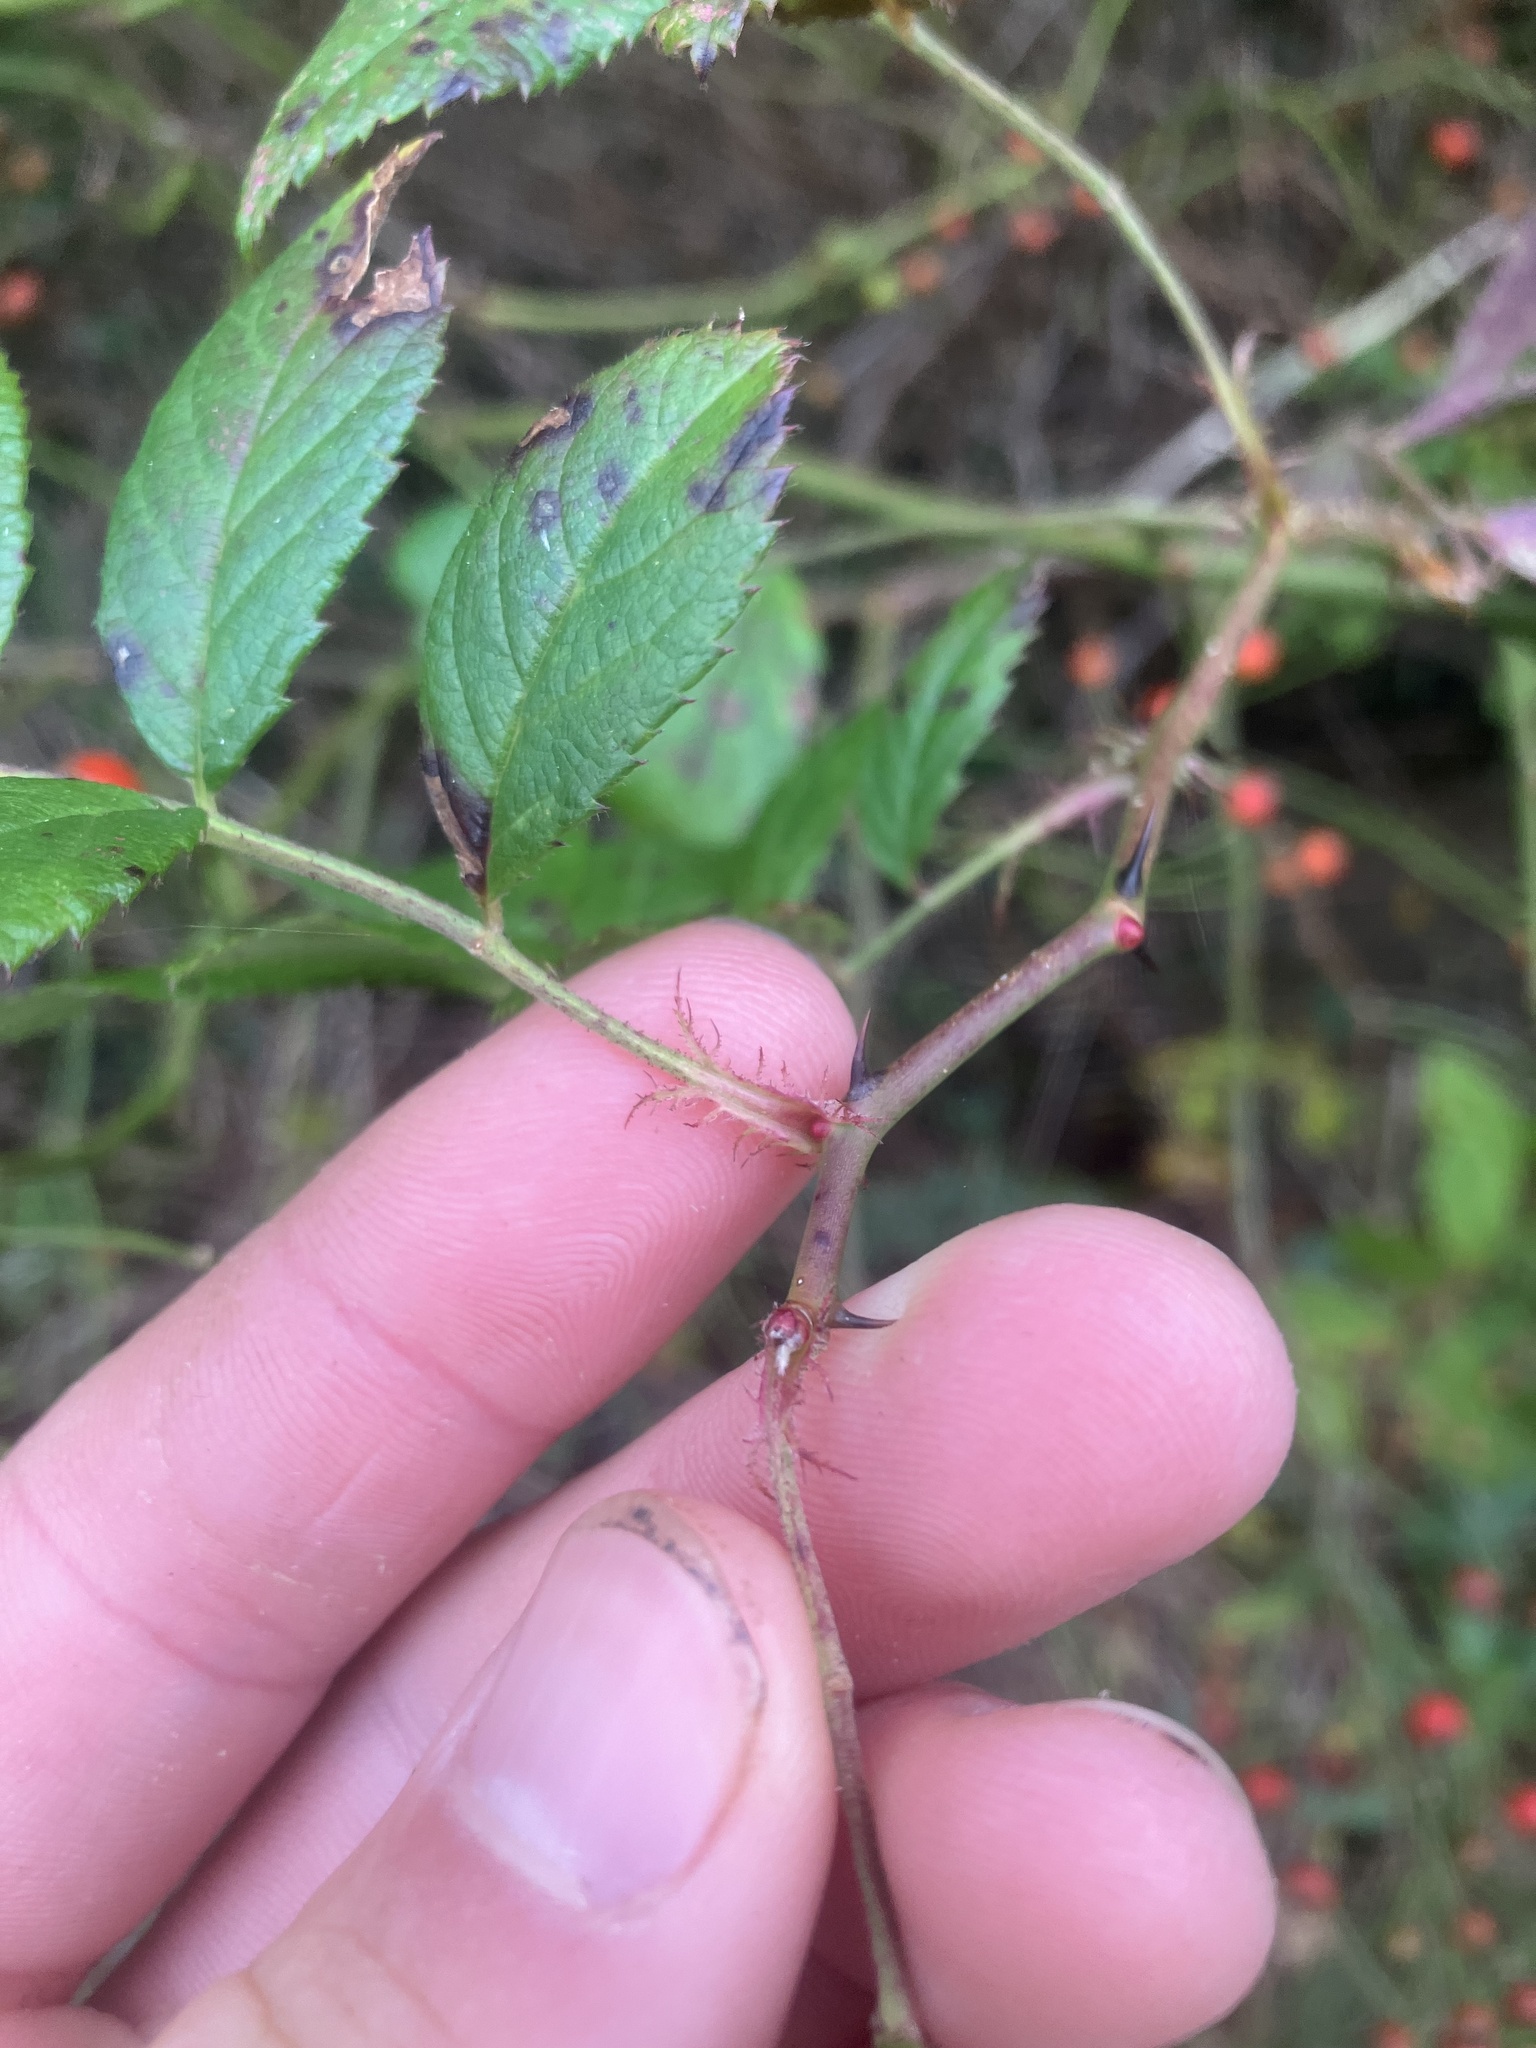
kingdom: Plantae
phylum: Tracheophyta
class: Magnoliopsida
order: Rosales
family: Rosaceae
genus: Rosa
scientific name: Rosa multiflora
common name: Multiflora rose
